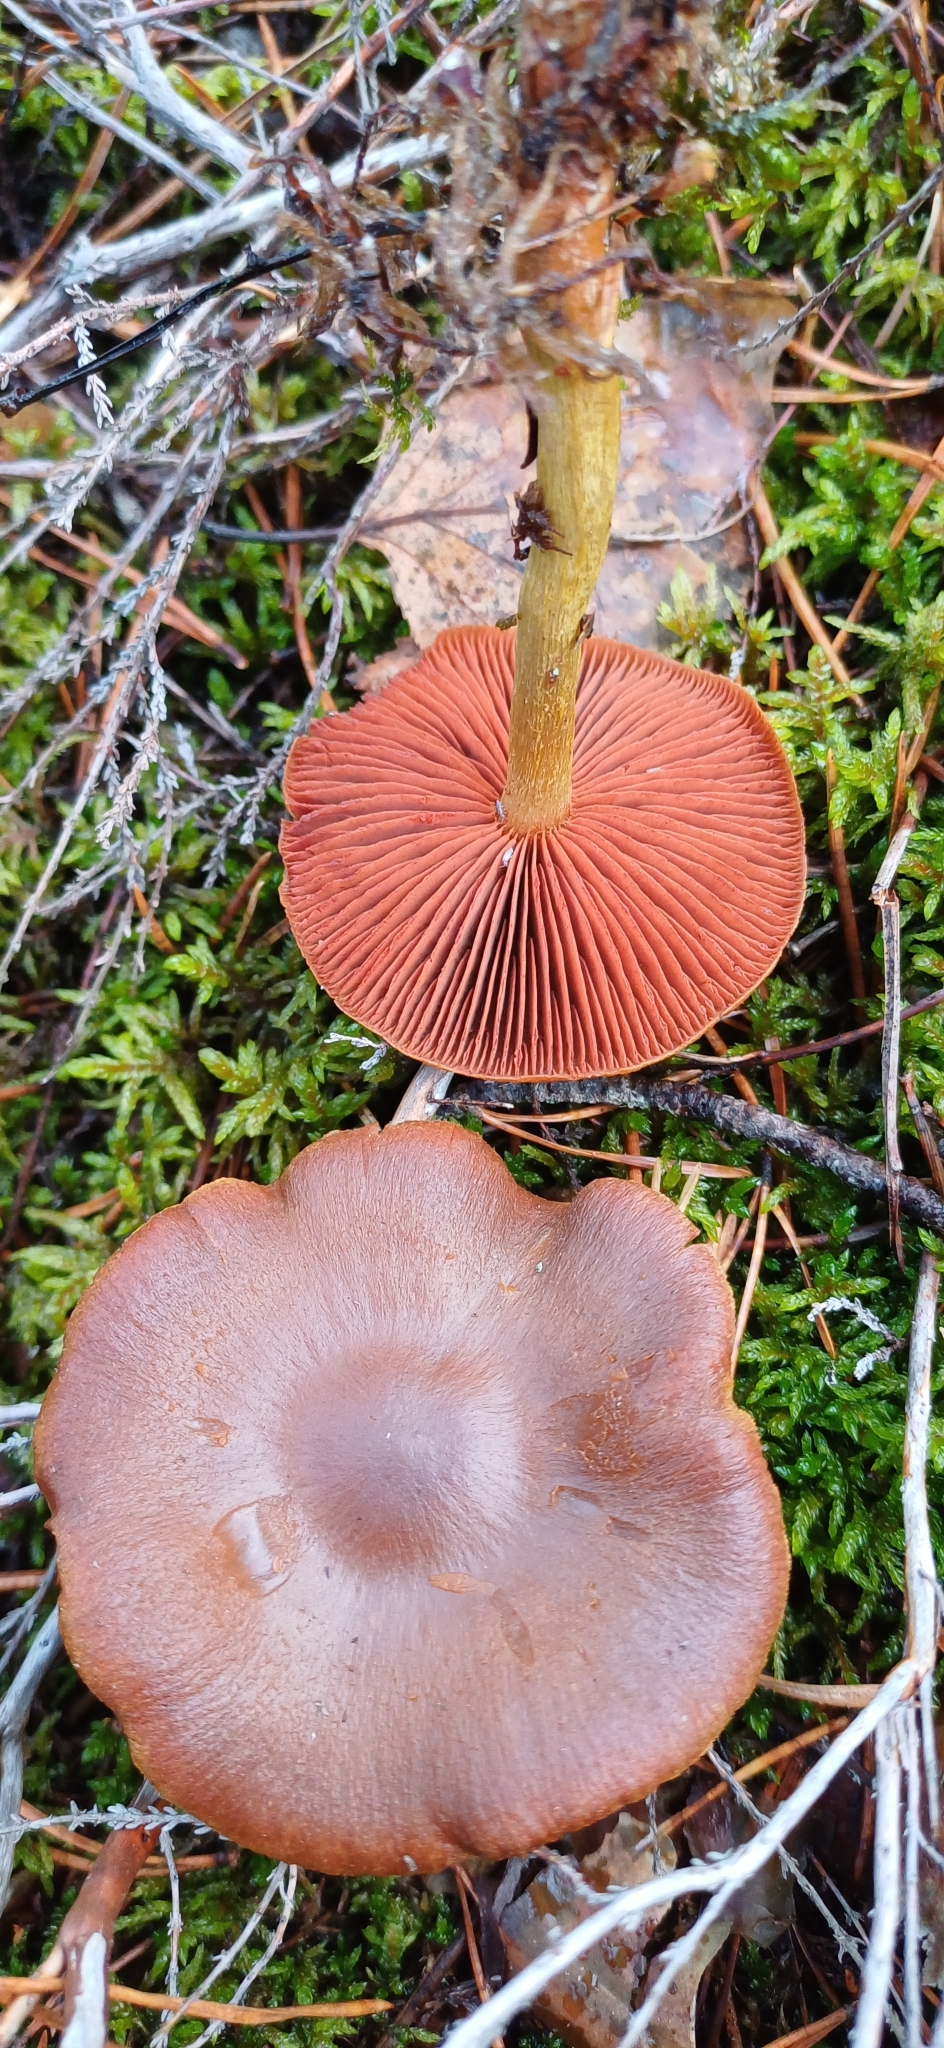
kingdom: Fungi
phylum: Basidiomycota
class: Agaricomycetes
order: Agaricales
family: Cortinariaceae
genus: Cortinarius
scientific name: Cortinarius semisanguineus
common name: Surprise webcap
